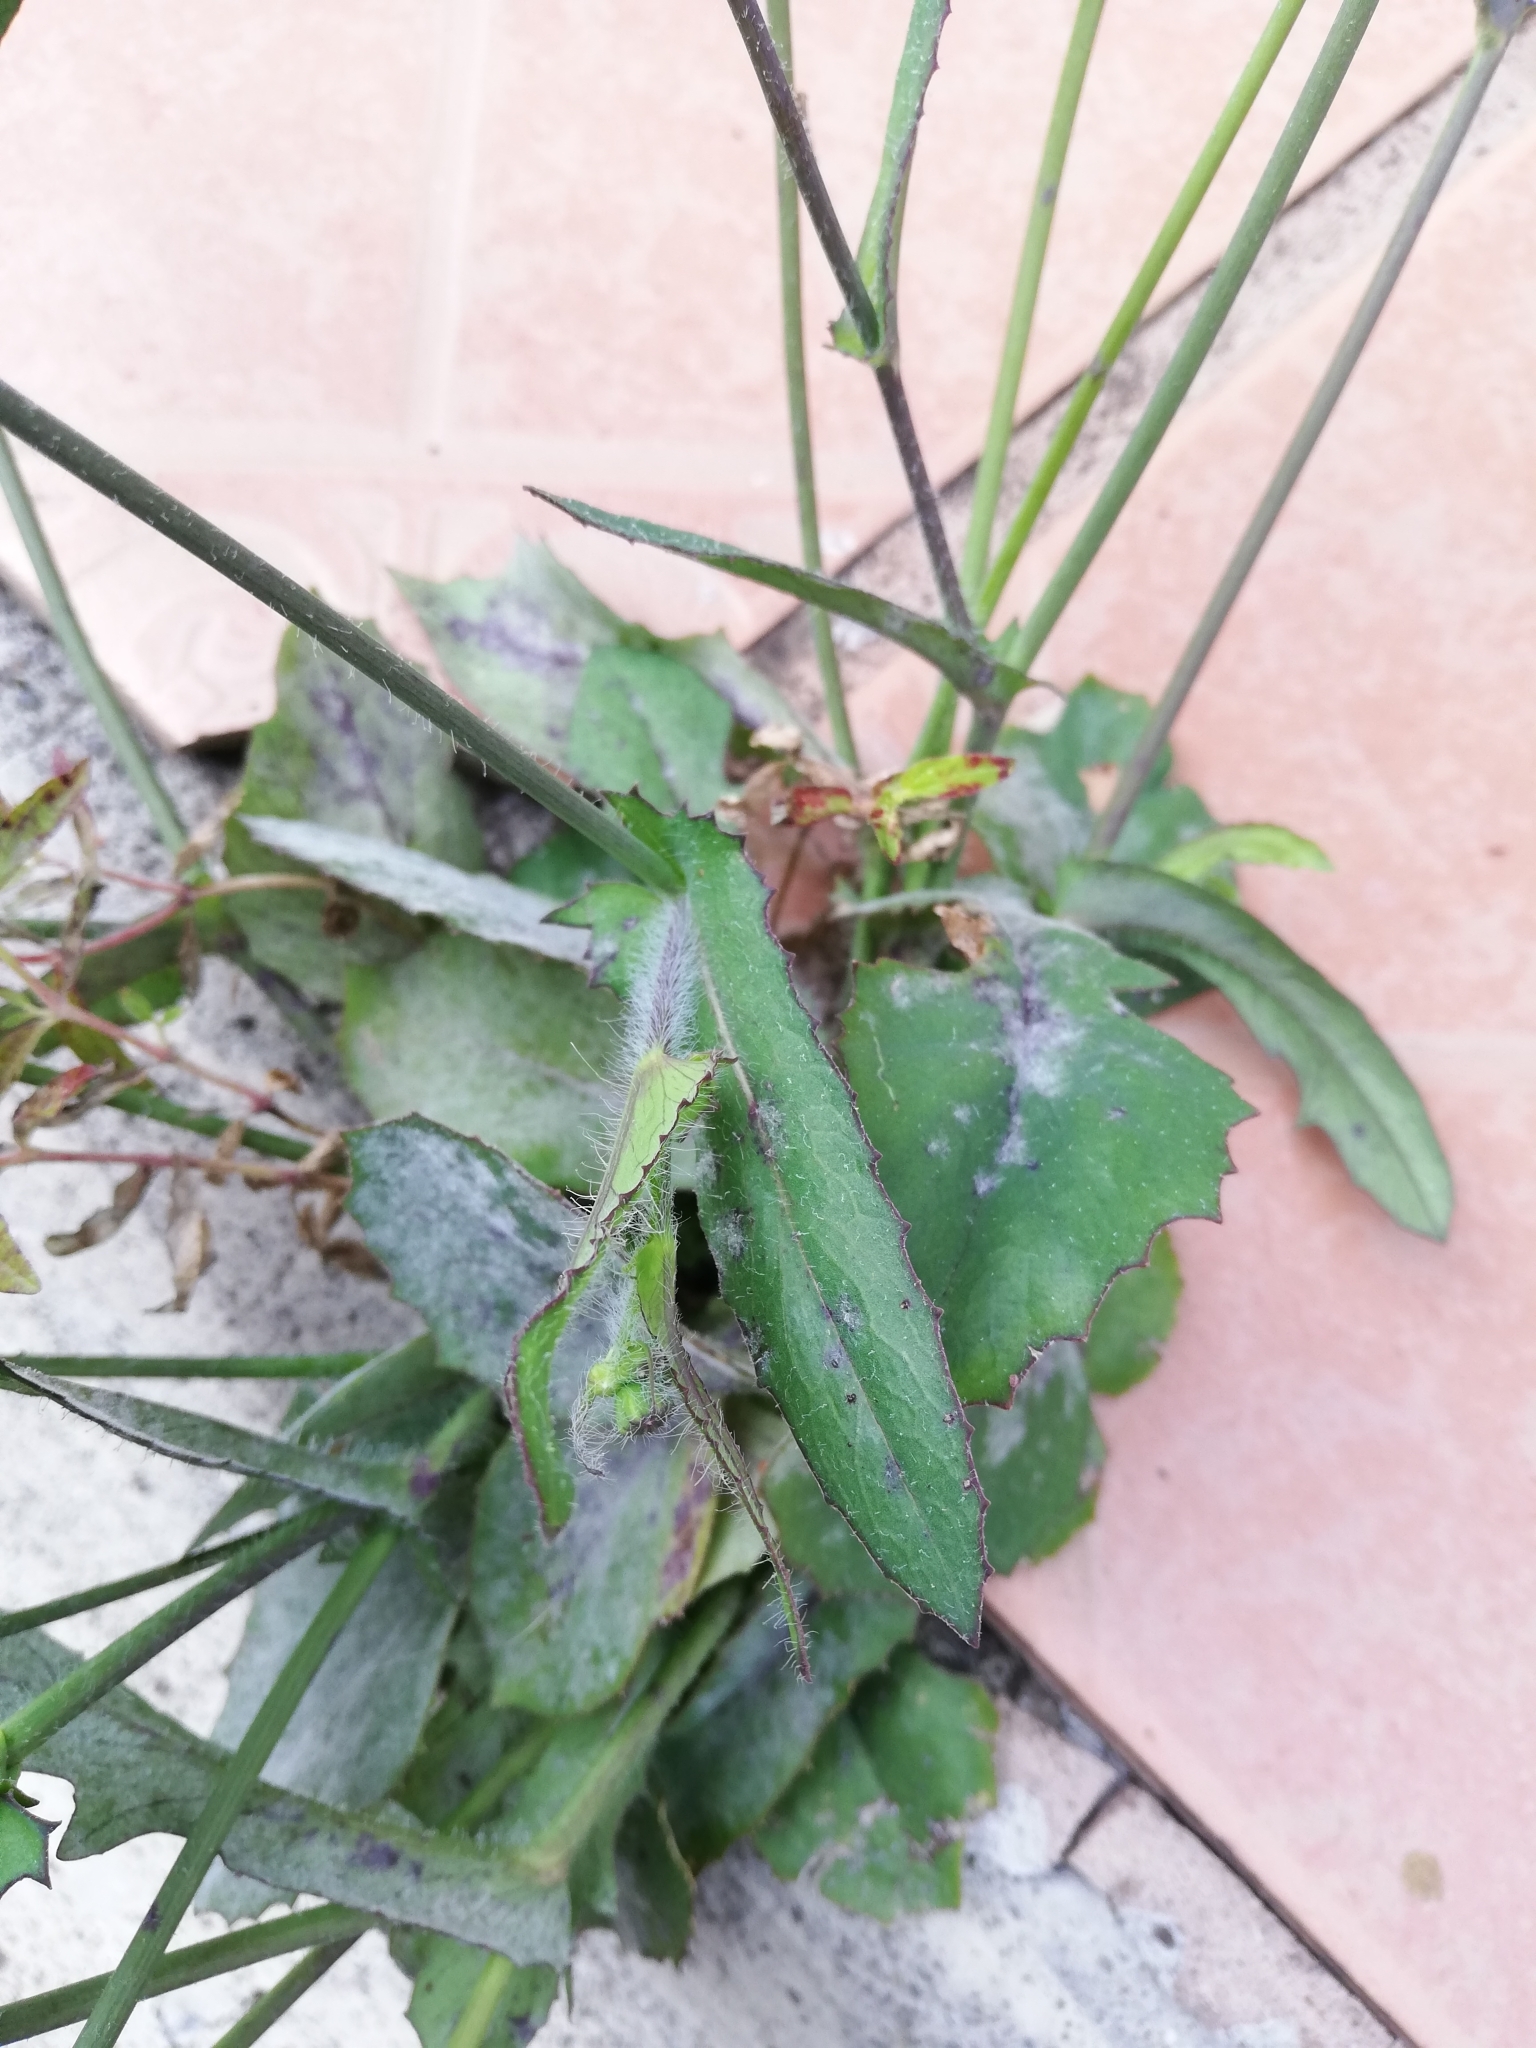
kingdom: Plantae
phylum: Tracheophyta
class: Magnoliopsida
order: Asterales
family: Asteraceae
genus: Emilia
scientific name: Emilia fosbergii
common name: Florida tasselflower
